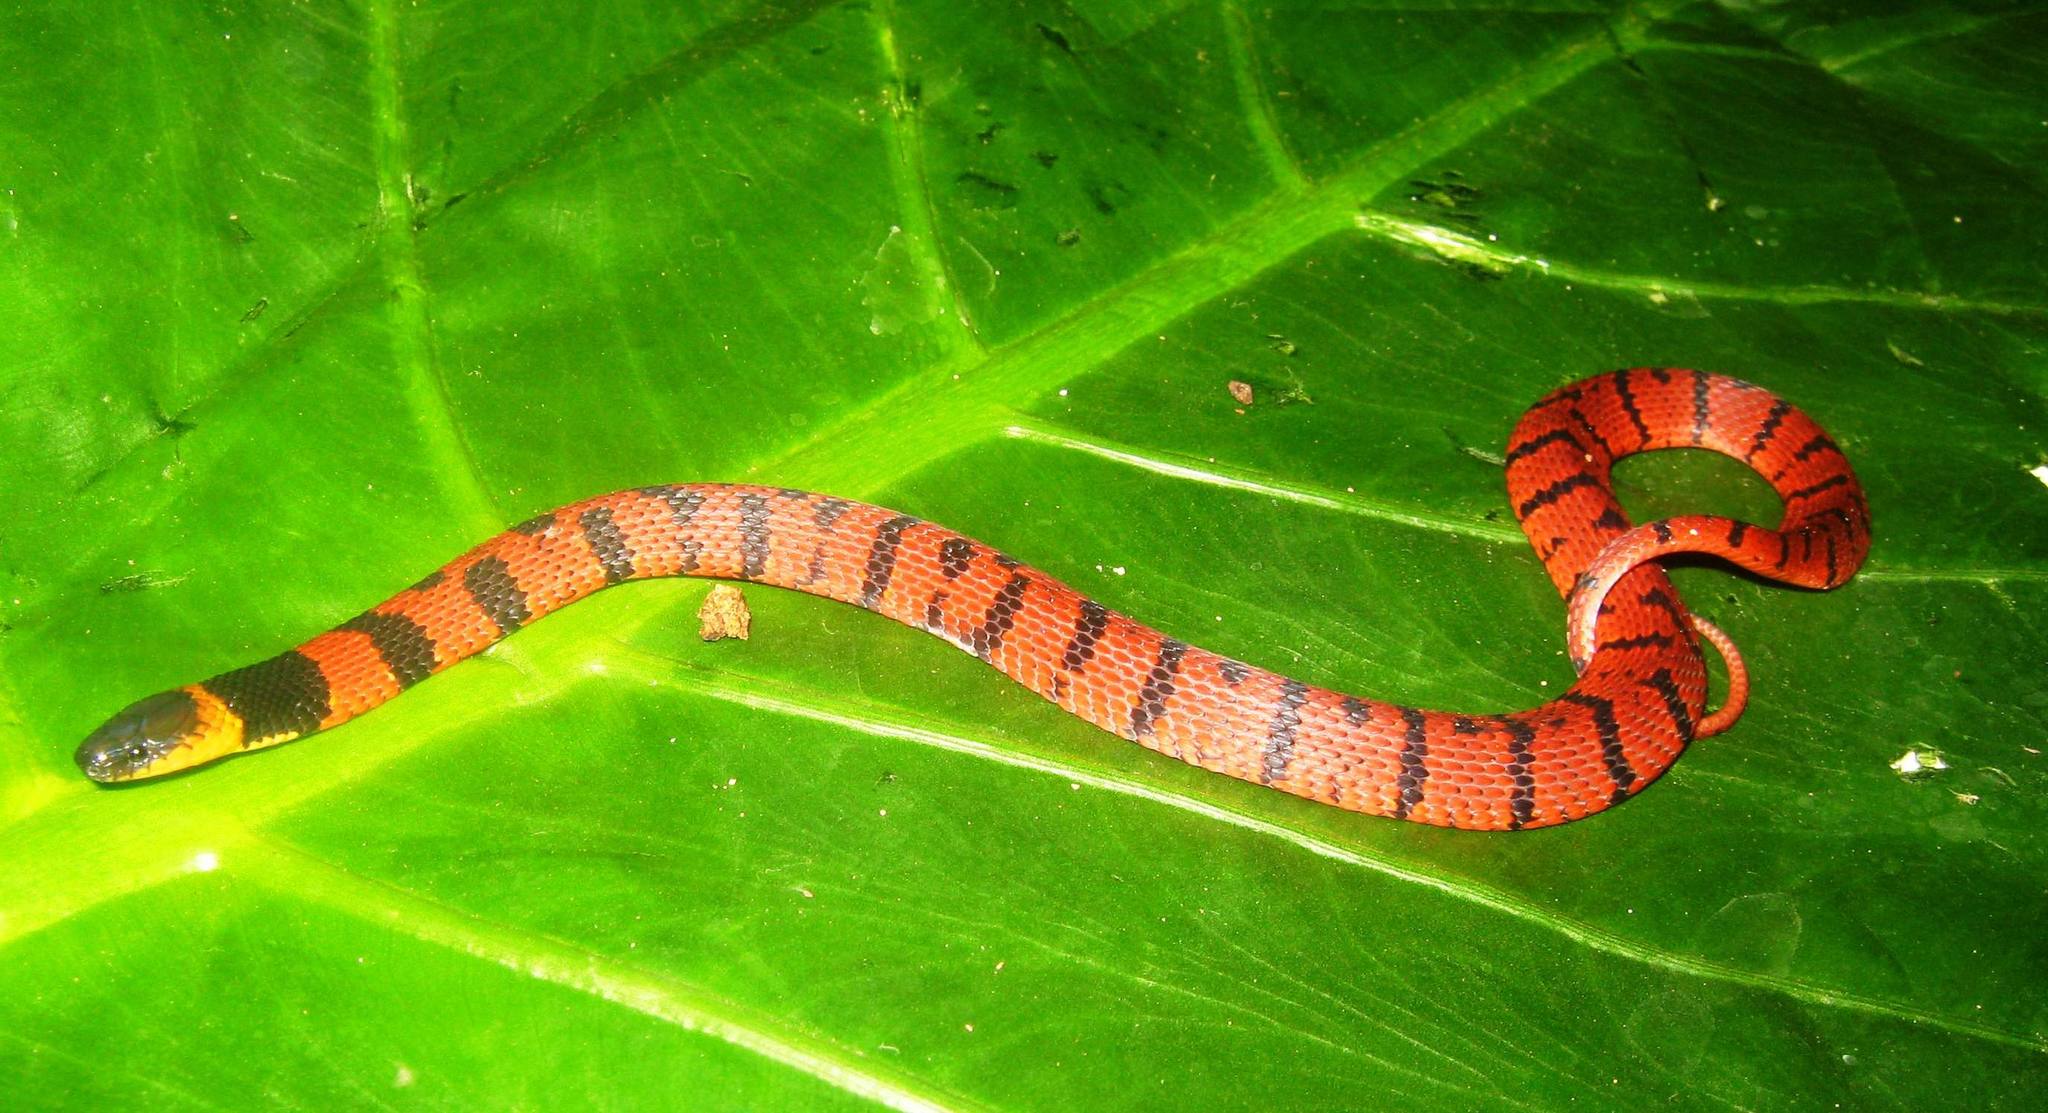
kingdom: Animalia
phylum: Chordata
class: Squamata
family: Colubridae
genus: Ninia
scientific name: Ninia sebae
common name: Redback coffee snake
